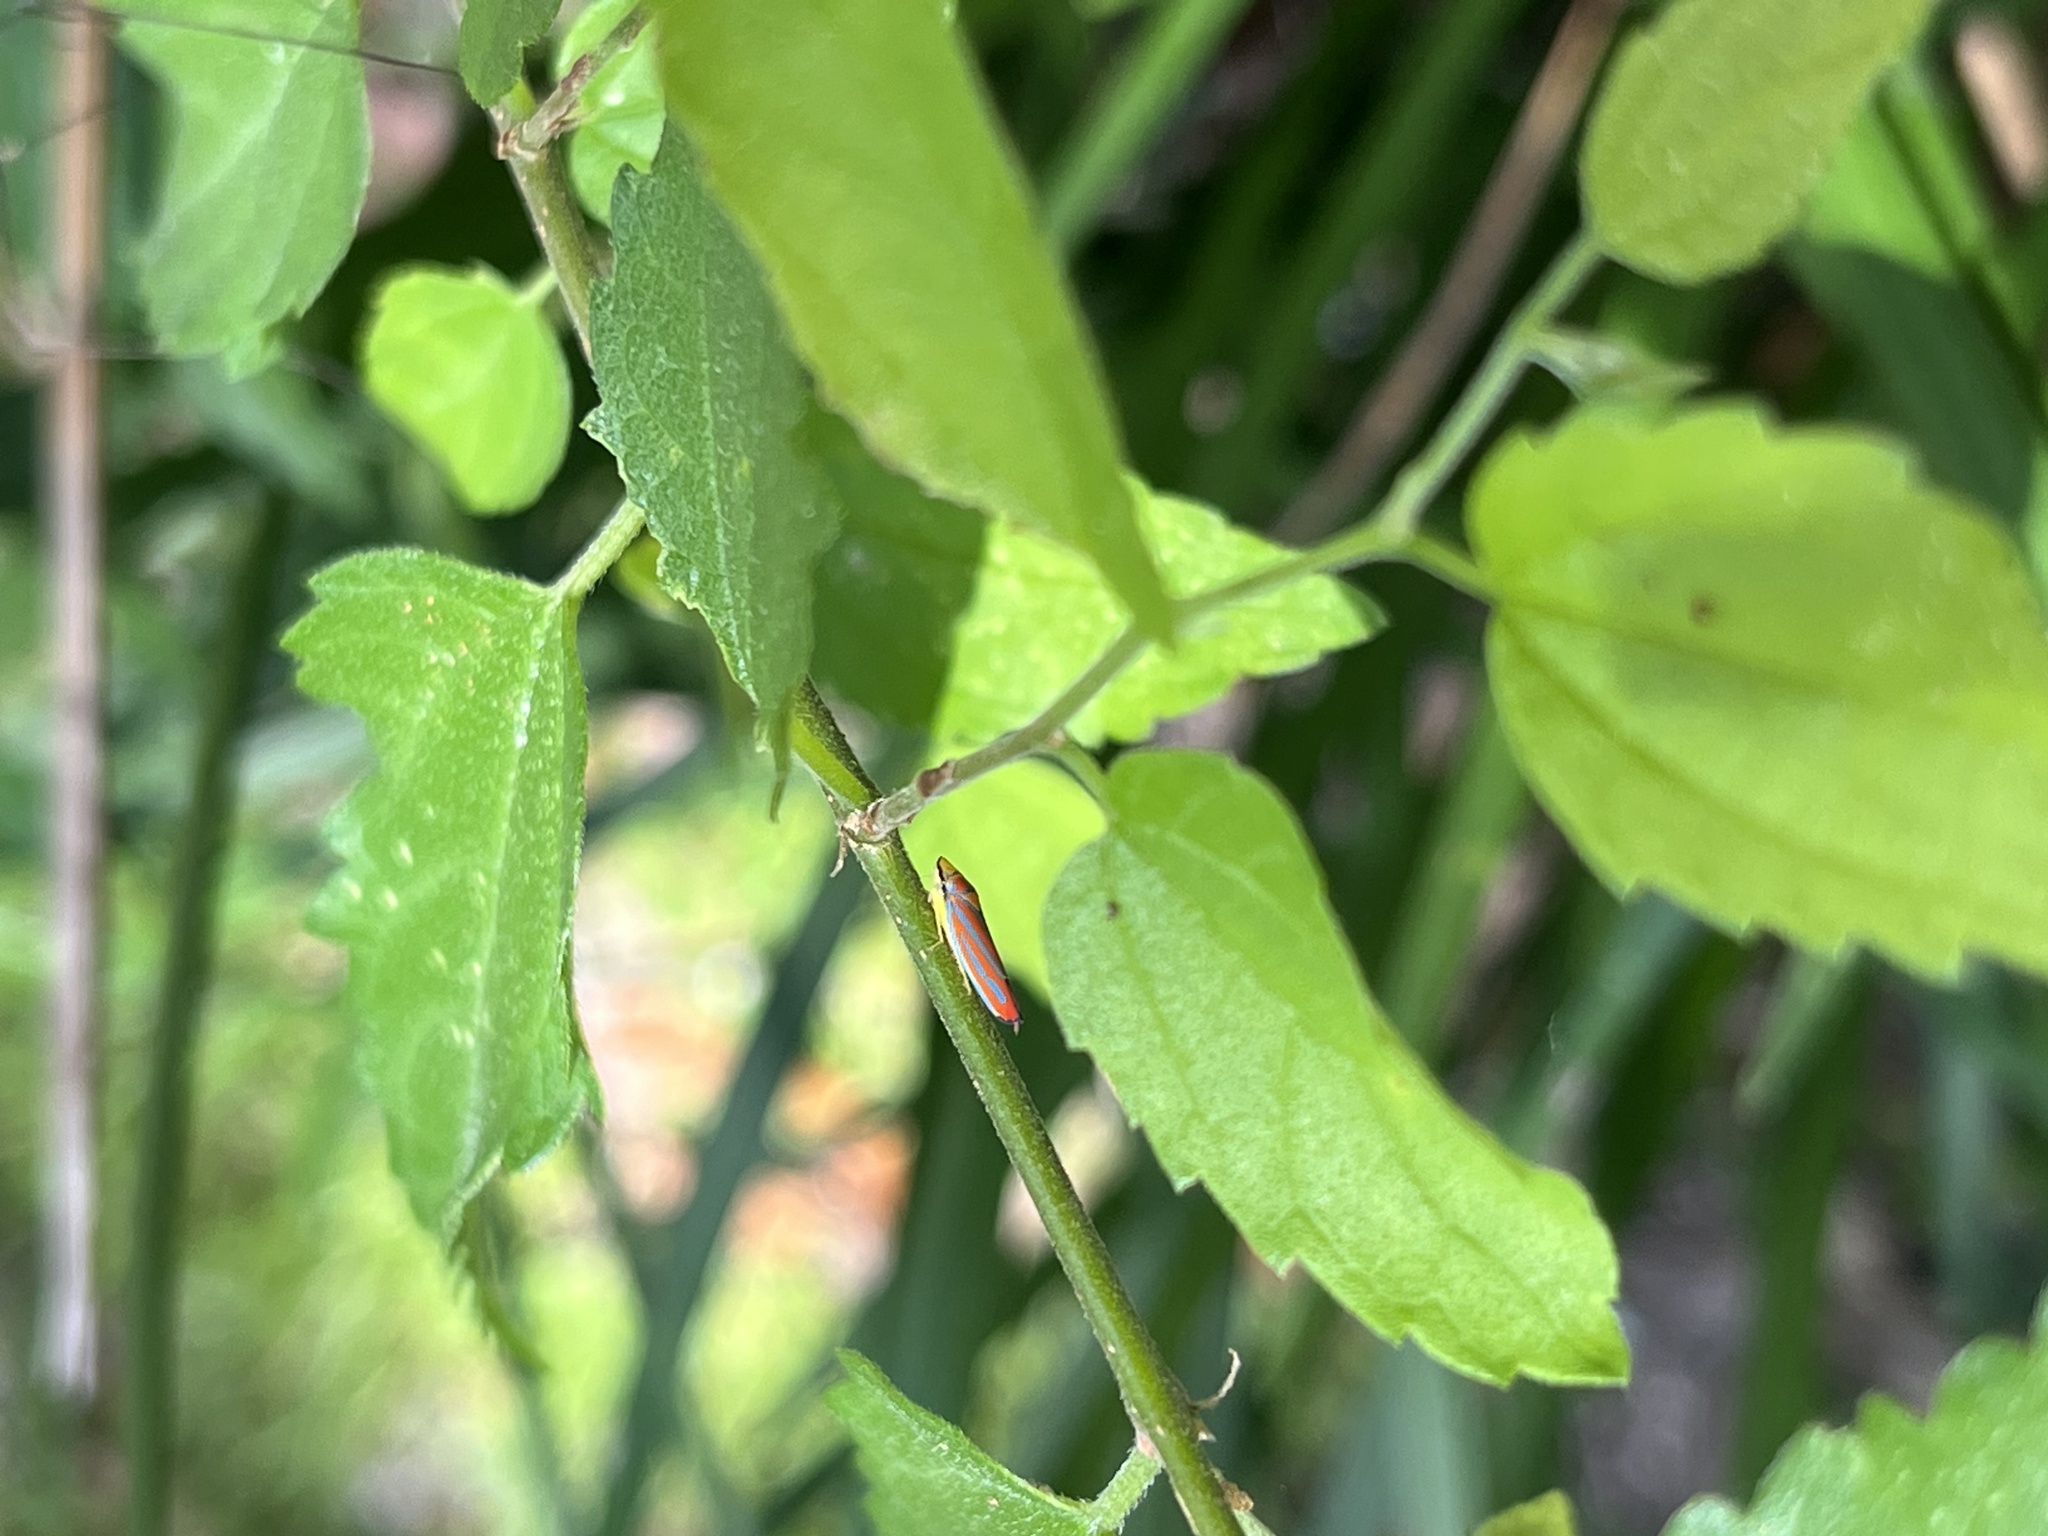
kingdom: Animalia
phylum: Arthropoda
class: Insecta
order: Hemiptera
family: Cicadellidae
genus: Graphocephala
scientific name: Graphocephala coccinea
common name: Candy-striped leafhopper
